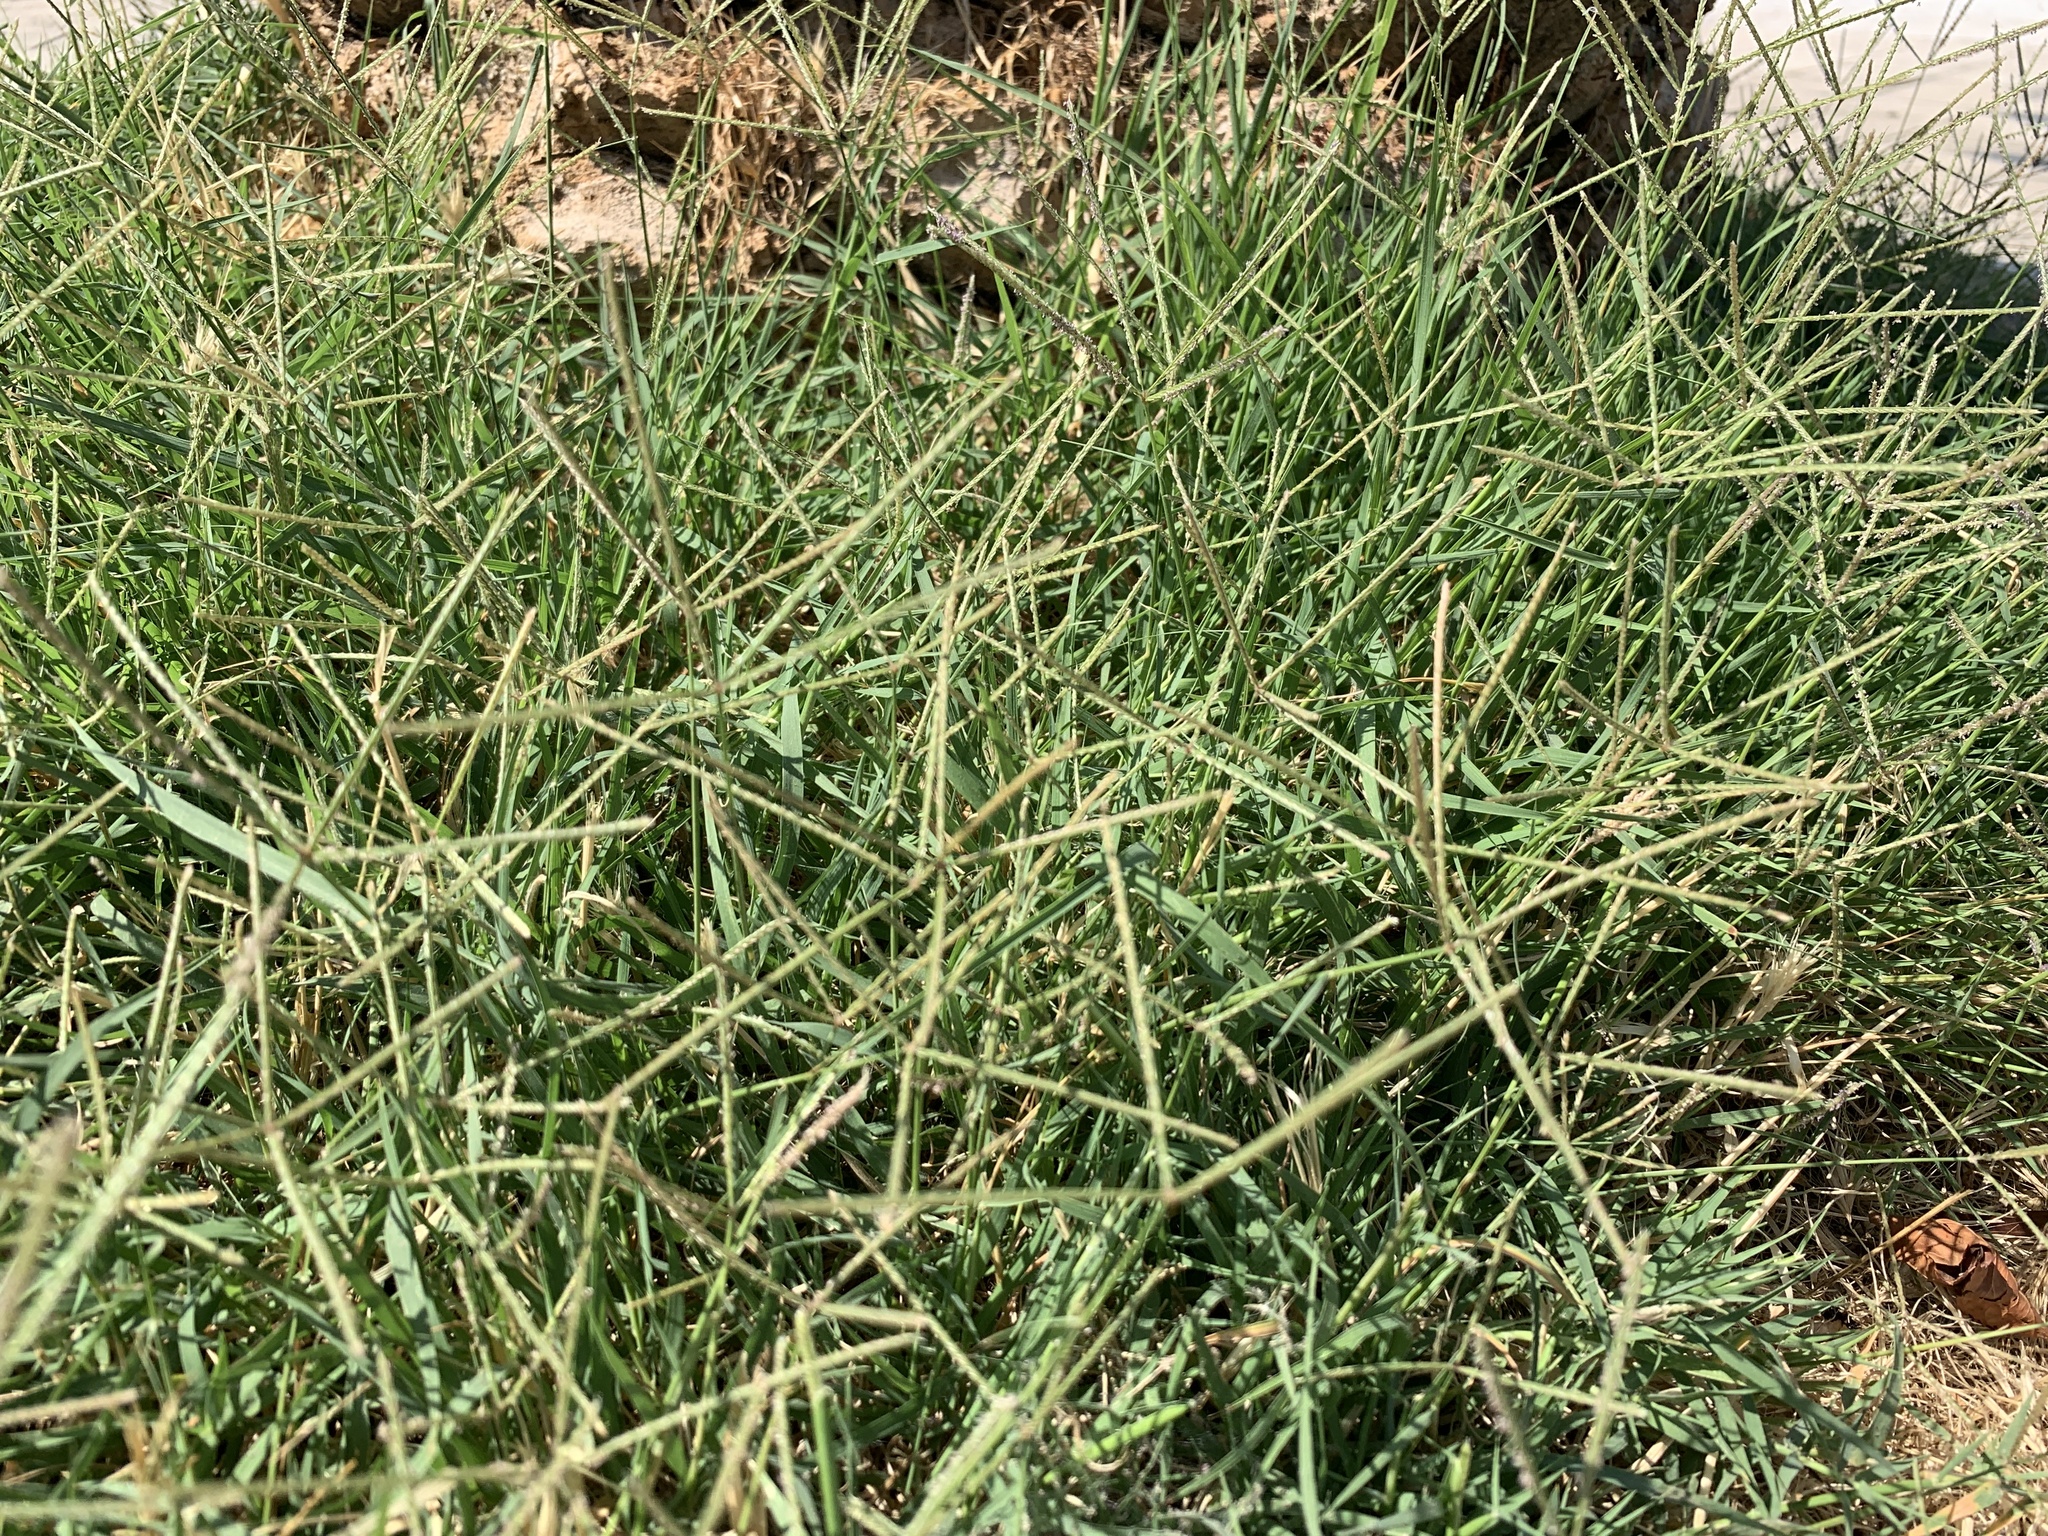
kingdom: Plantae
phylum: Tracheophyta
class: Liliopsida
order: Poales
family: Poaceae
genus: Cynodon
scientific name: Cynodon dactylon
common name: Bermuda grass
